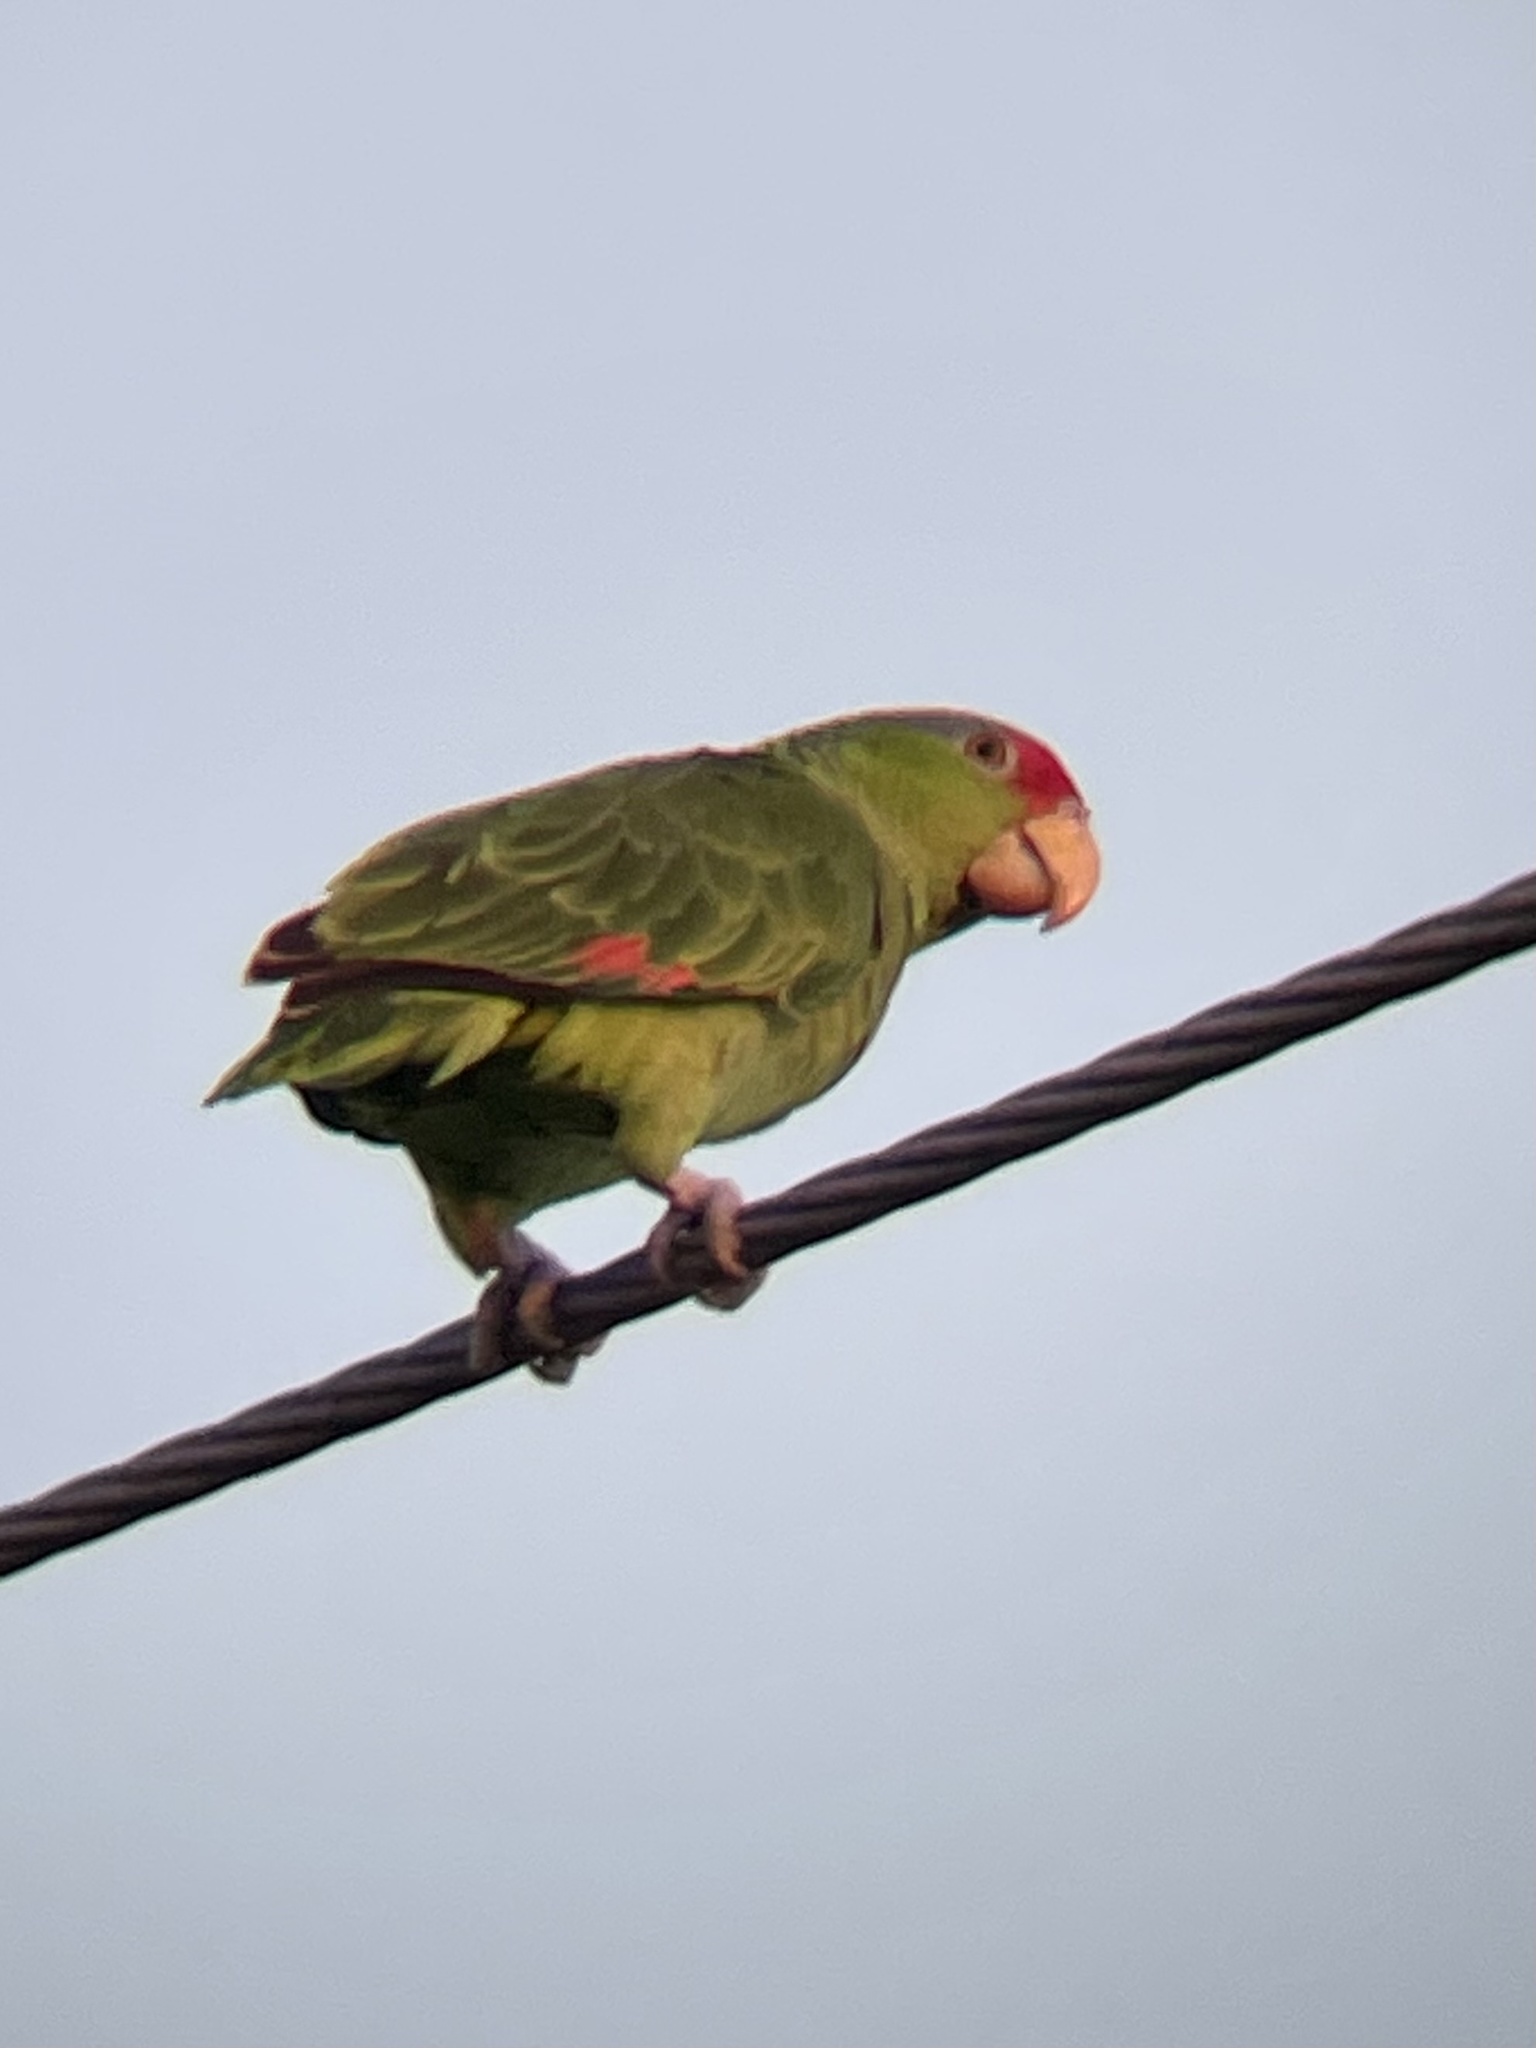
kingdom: Animalia
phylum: Chordata
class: Aves
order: Psittaciformes
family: Psittacidae
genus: Amazona
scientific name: Amazona viridigenalis
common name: Red-crowned amazon
